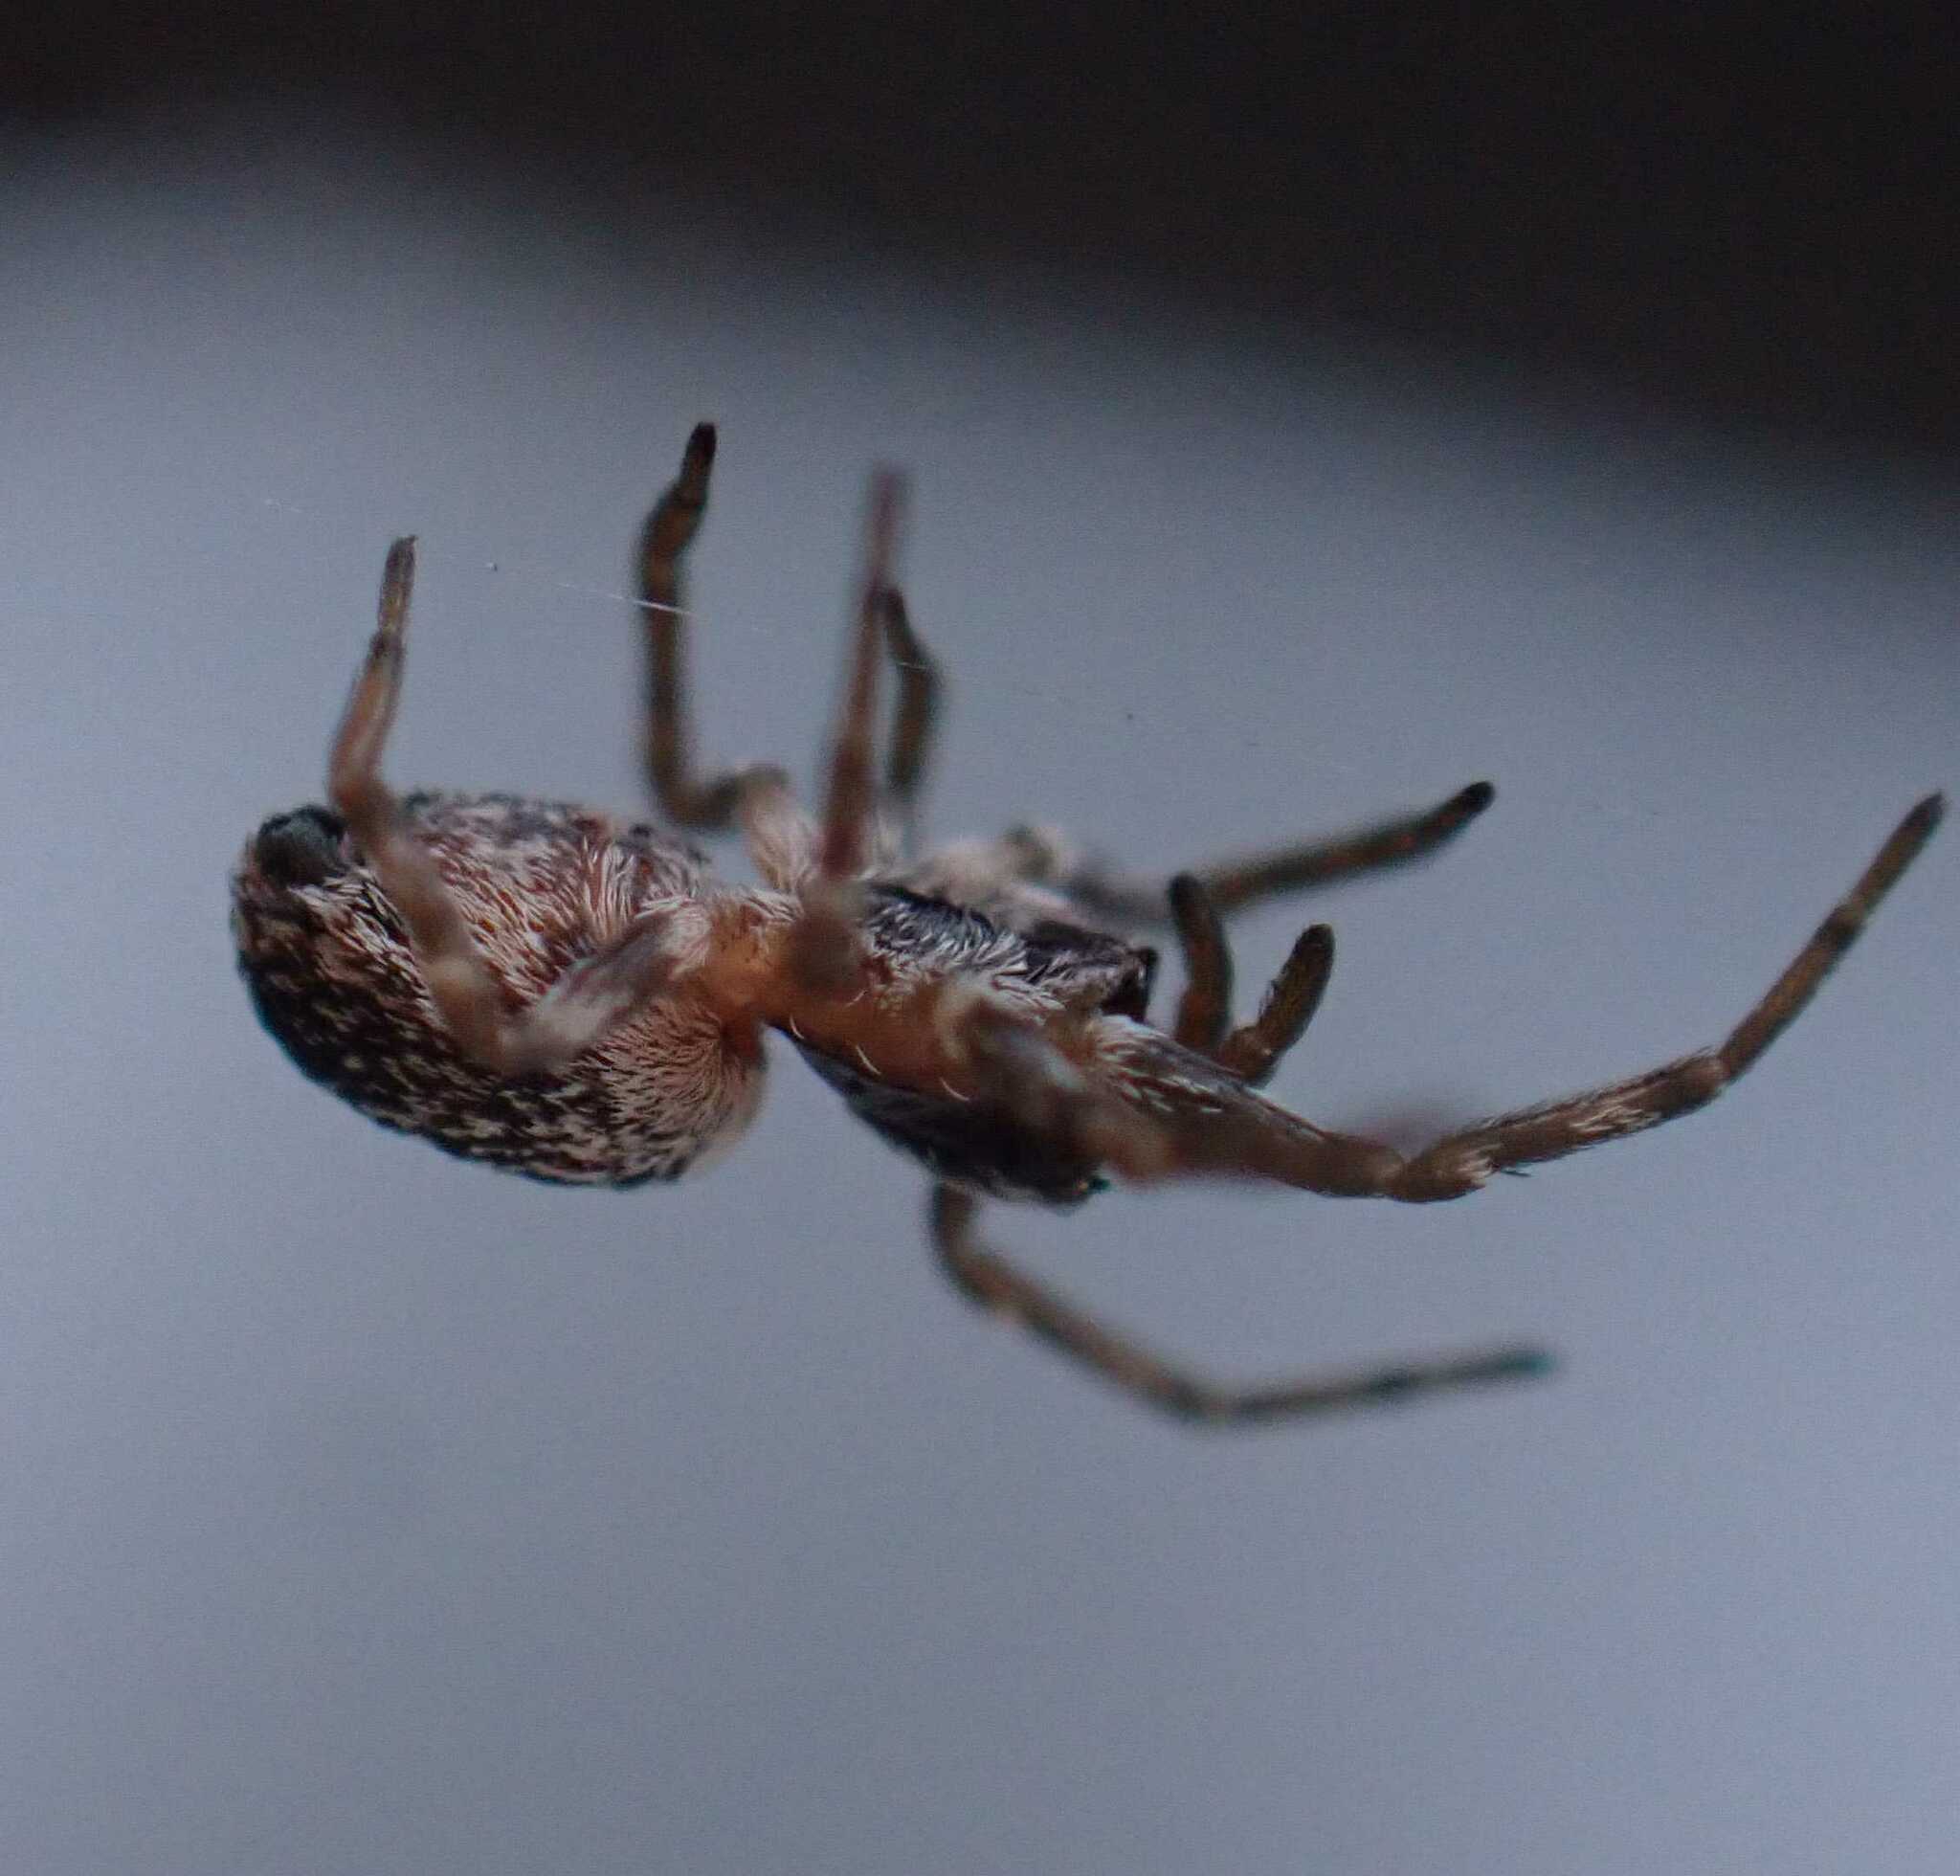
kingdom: Animalia
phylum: Arthropoda
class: Arachnida
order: Araneae
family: Dictynidae
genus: Brigittea
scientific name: Brigittea civica
